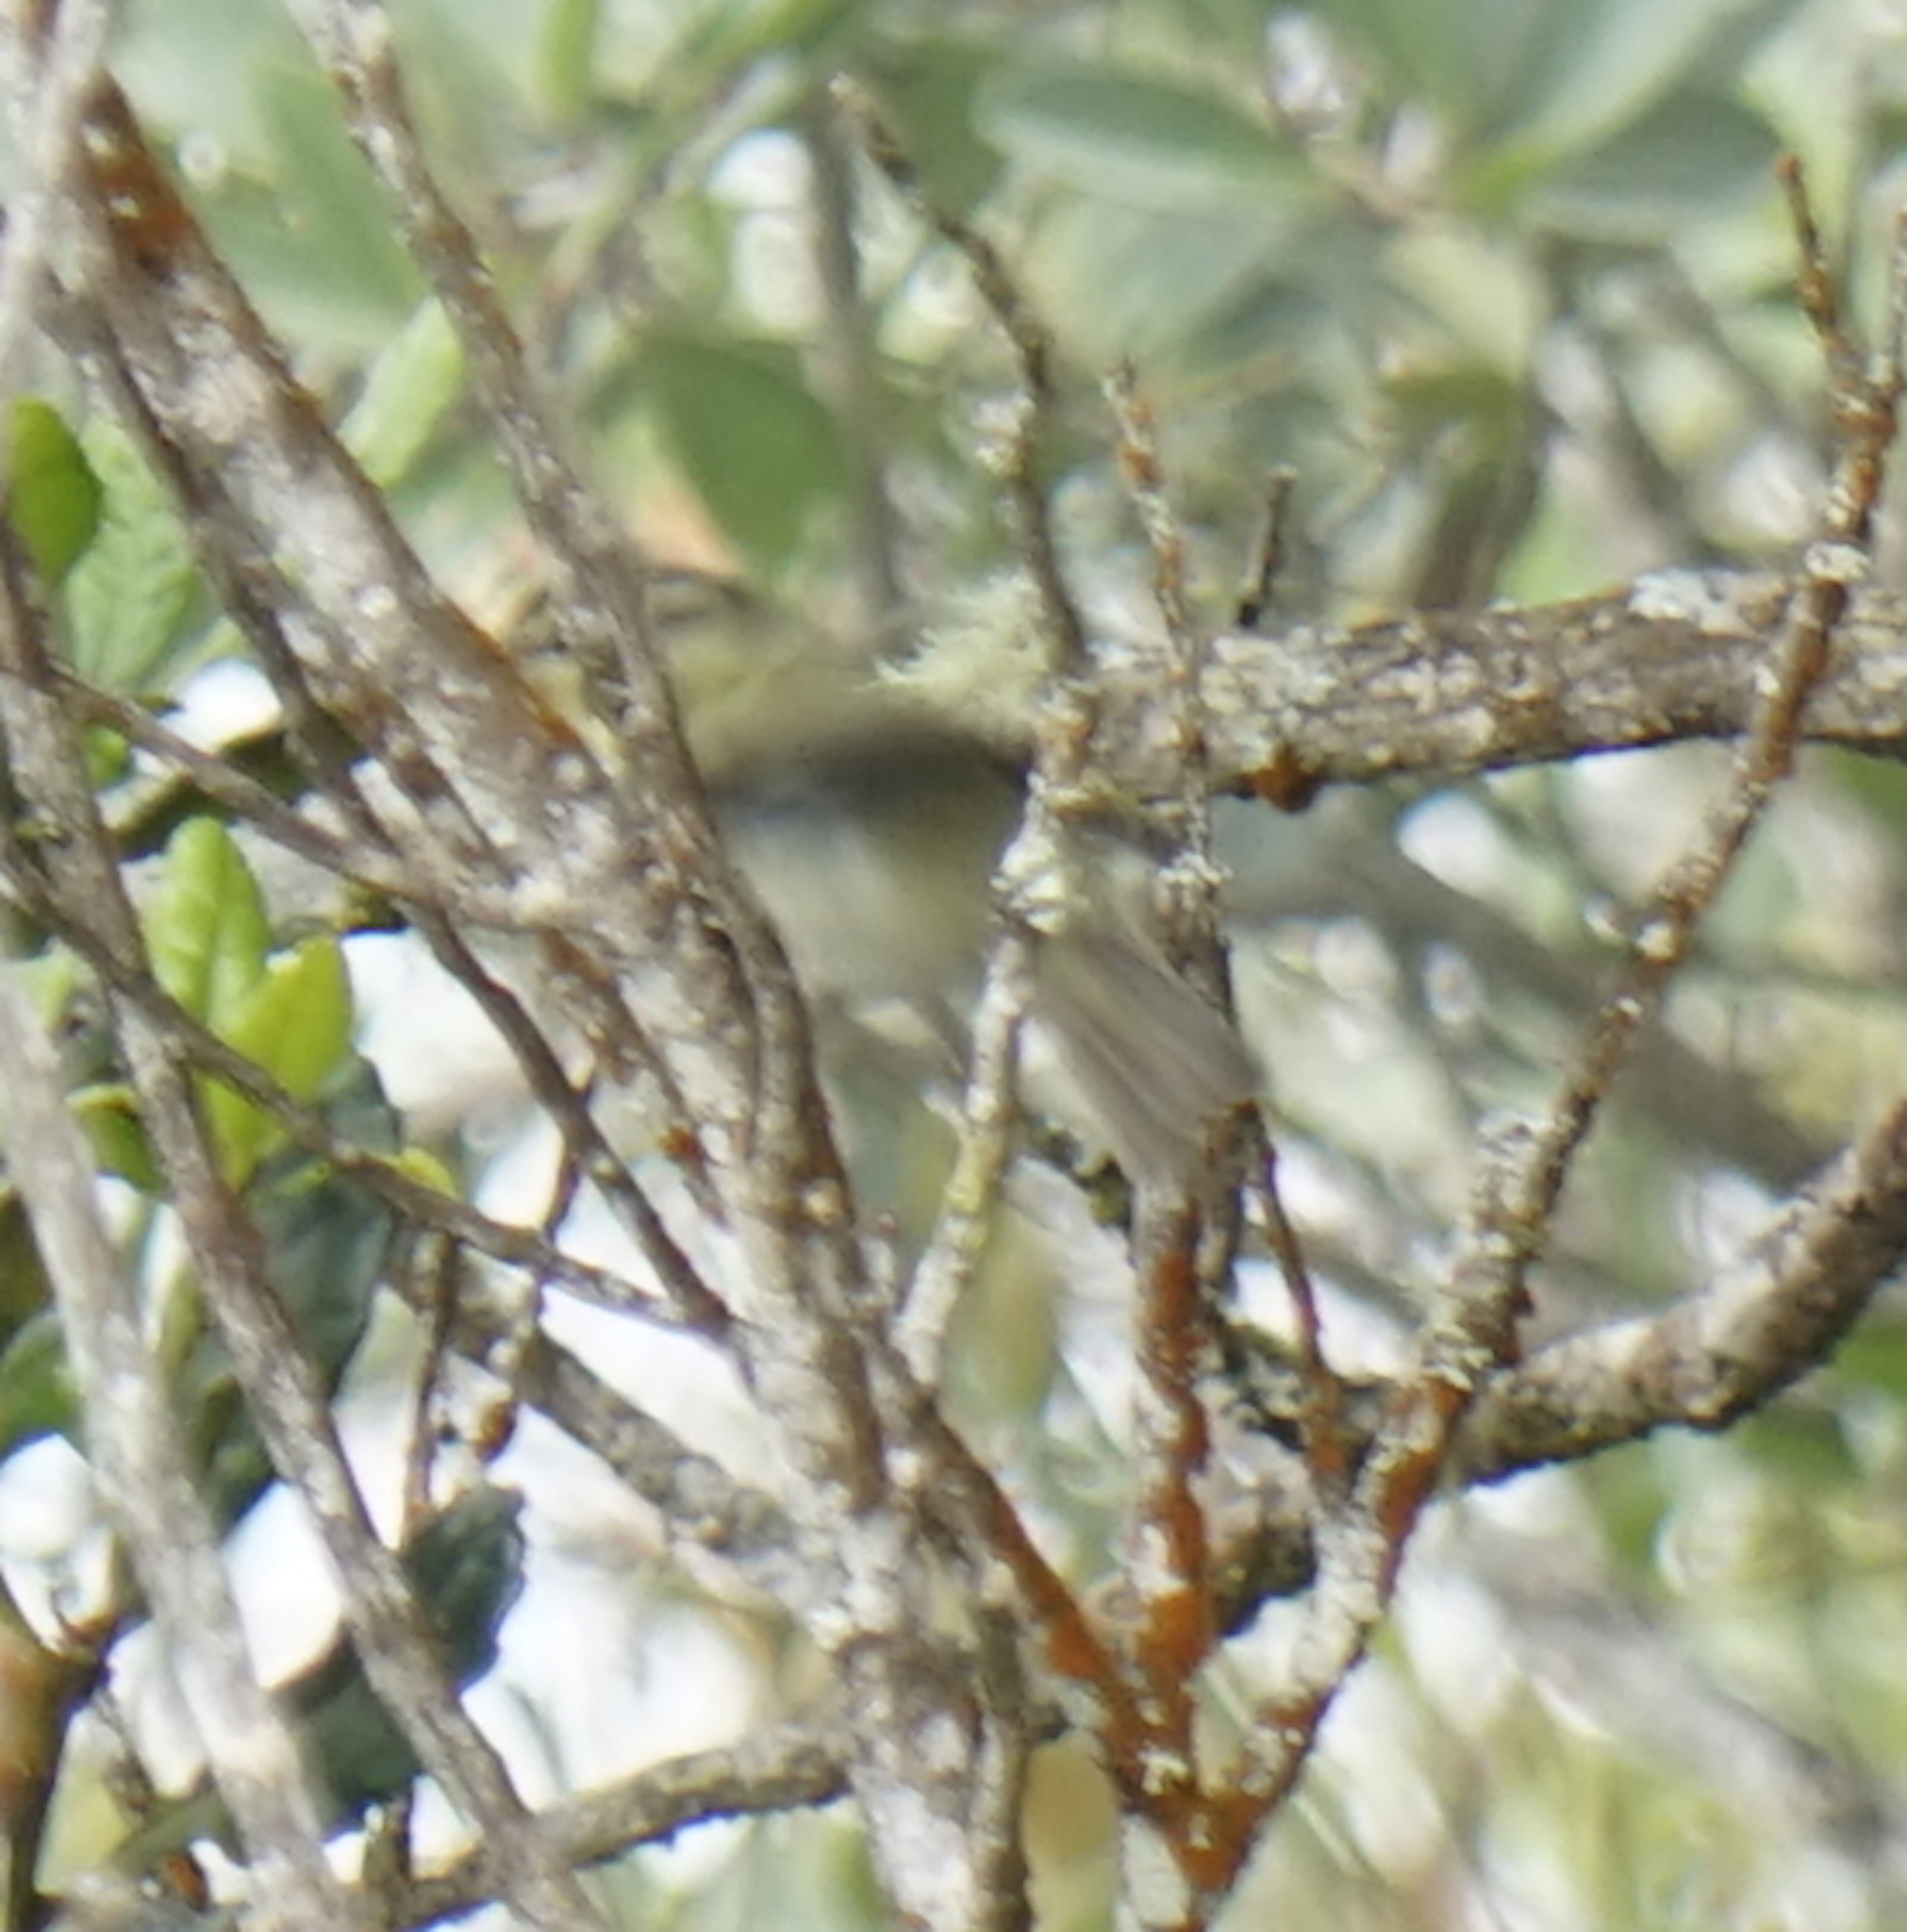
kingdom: Animalia
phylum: Chordata
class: Aves
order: Passeriformes
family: Phylloscopidae
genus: Phylloscopus
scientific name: Phylloscopus trivirgatus
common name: Mountain leaf warbler
